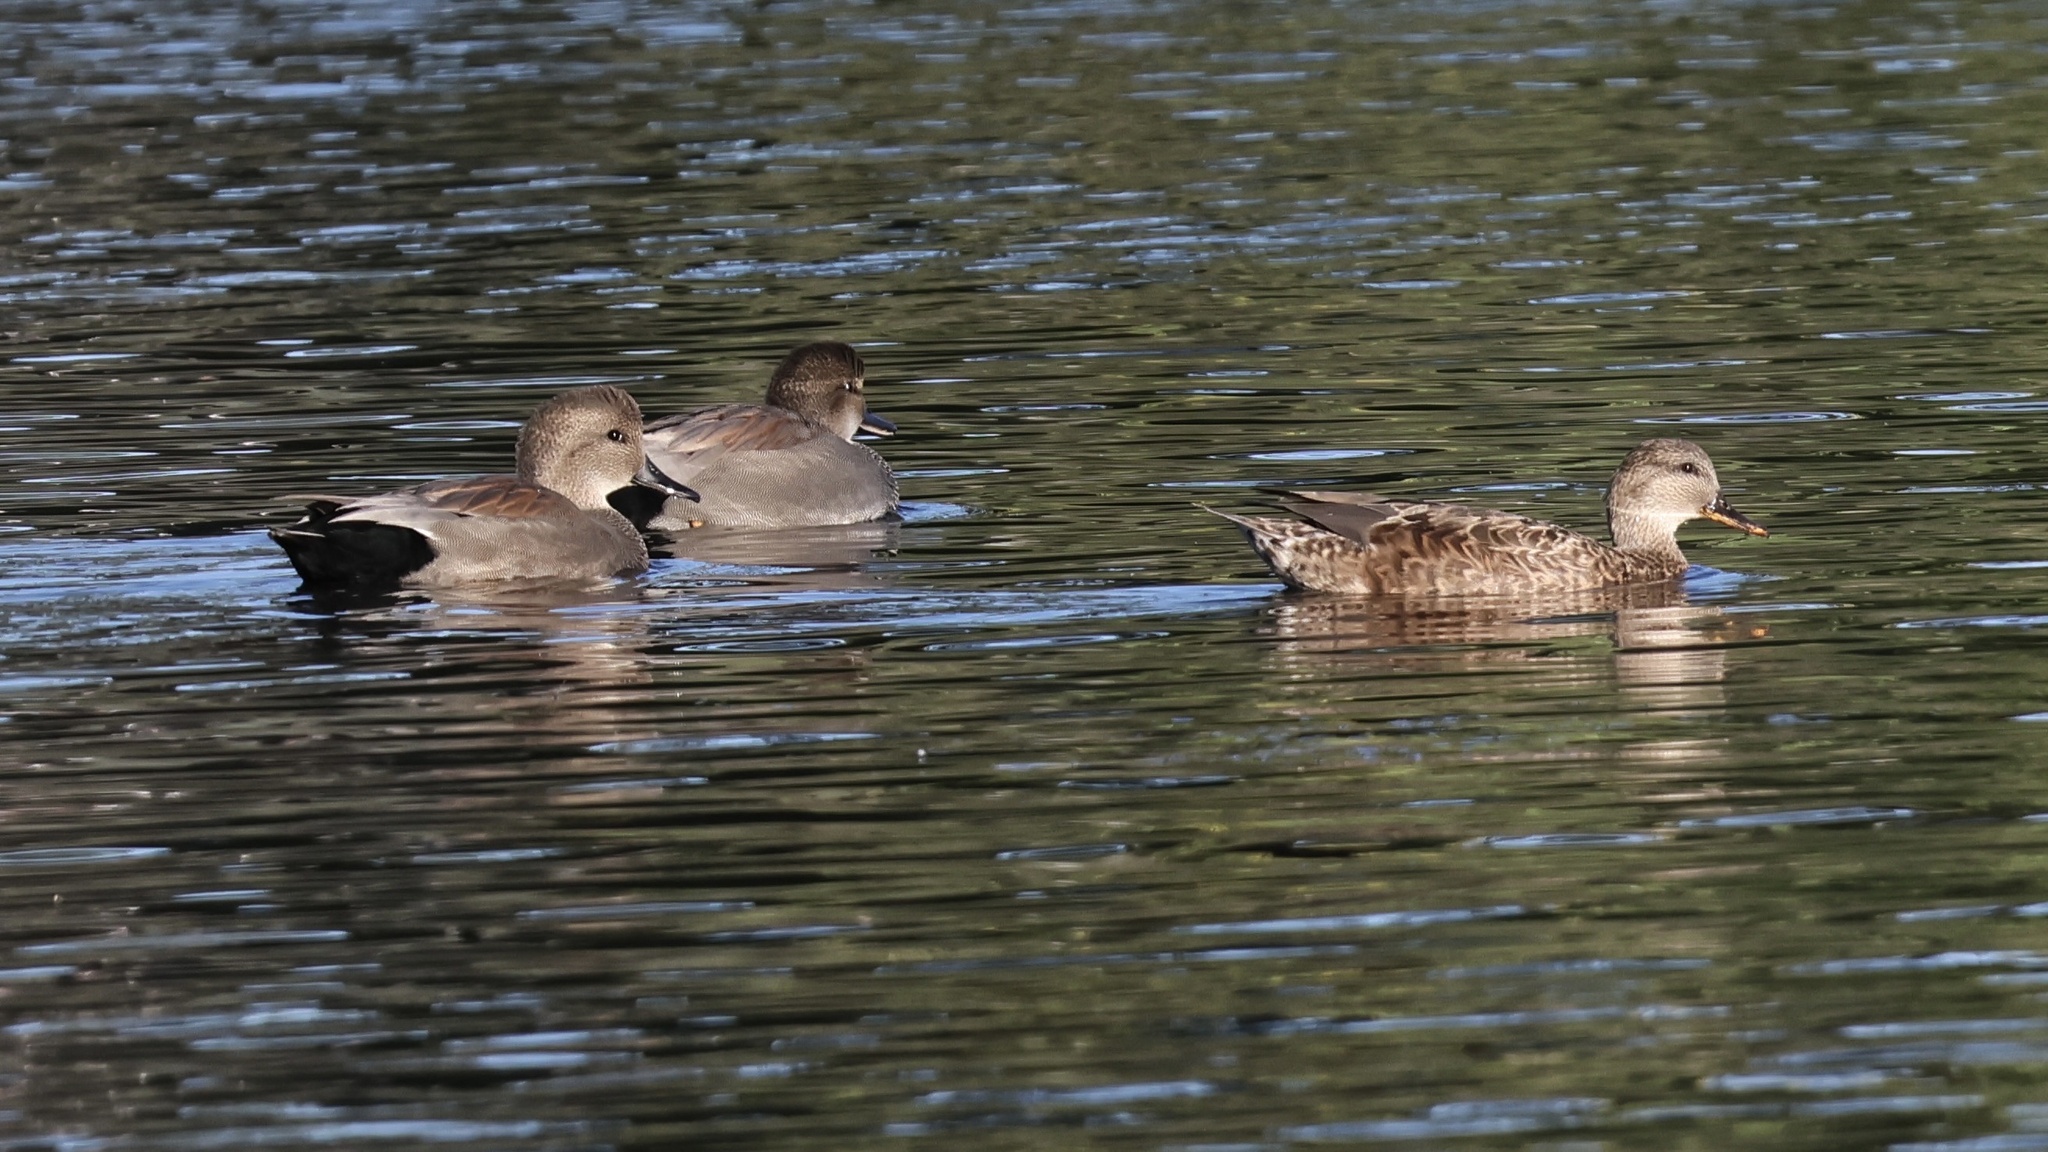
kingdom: Animalia
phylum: Chordata
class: Aves
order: Anseriformes
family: Anatidae
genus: Mareca
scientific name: Mareca strepera
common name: Gadwall
